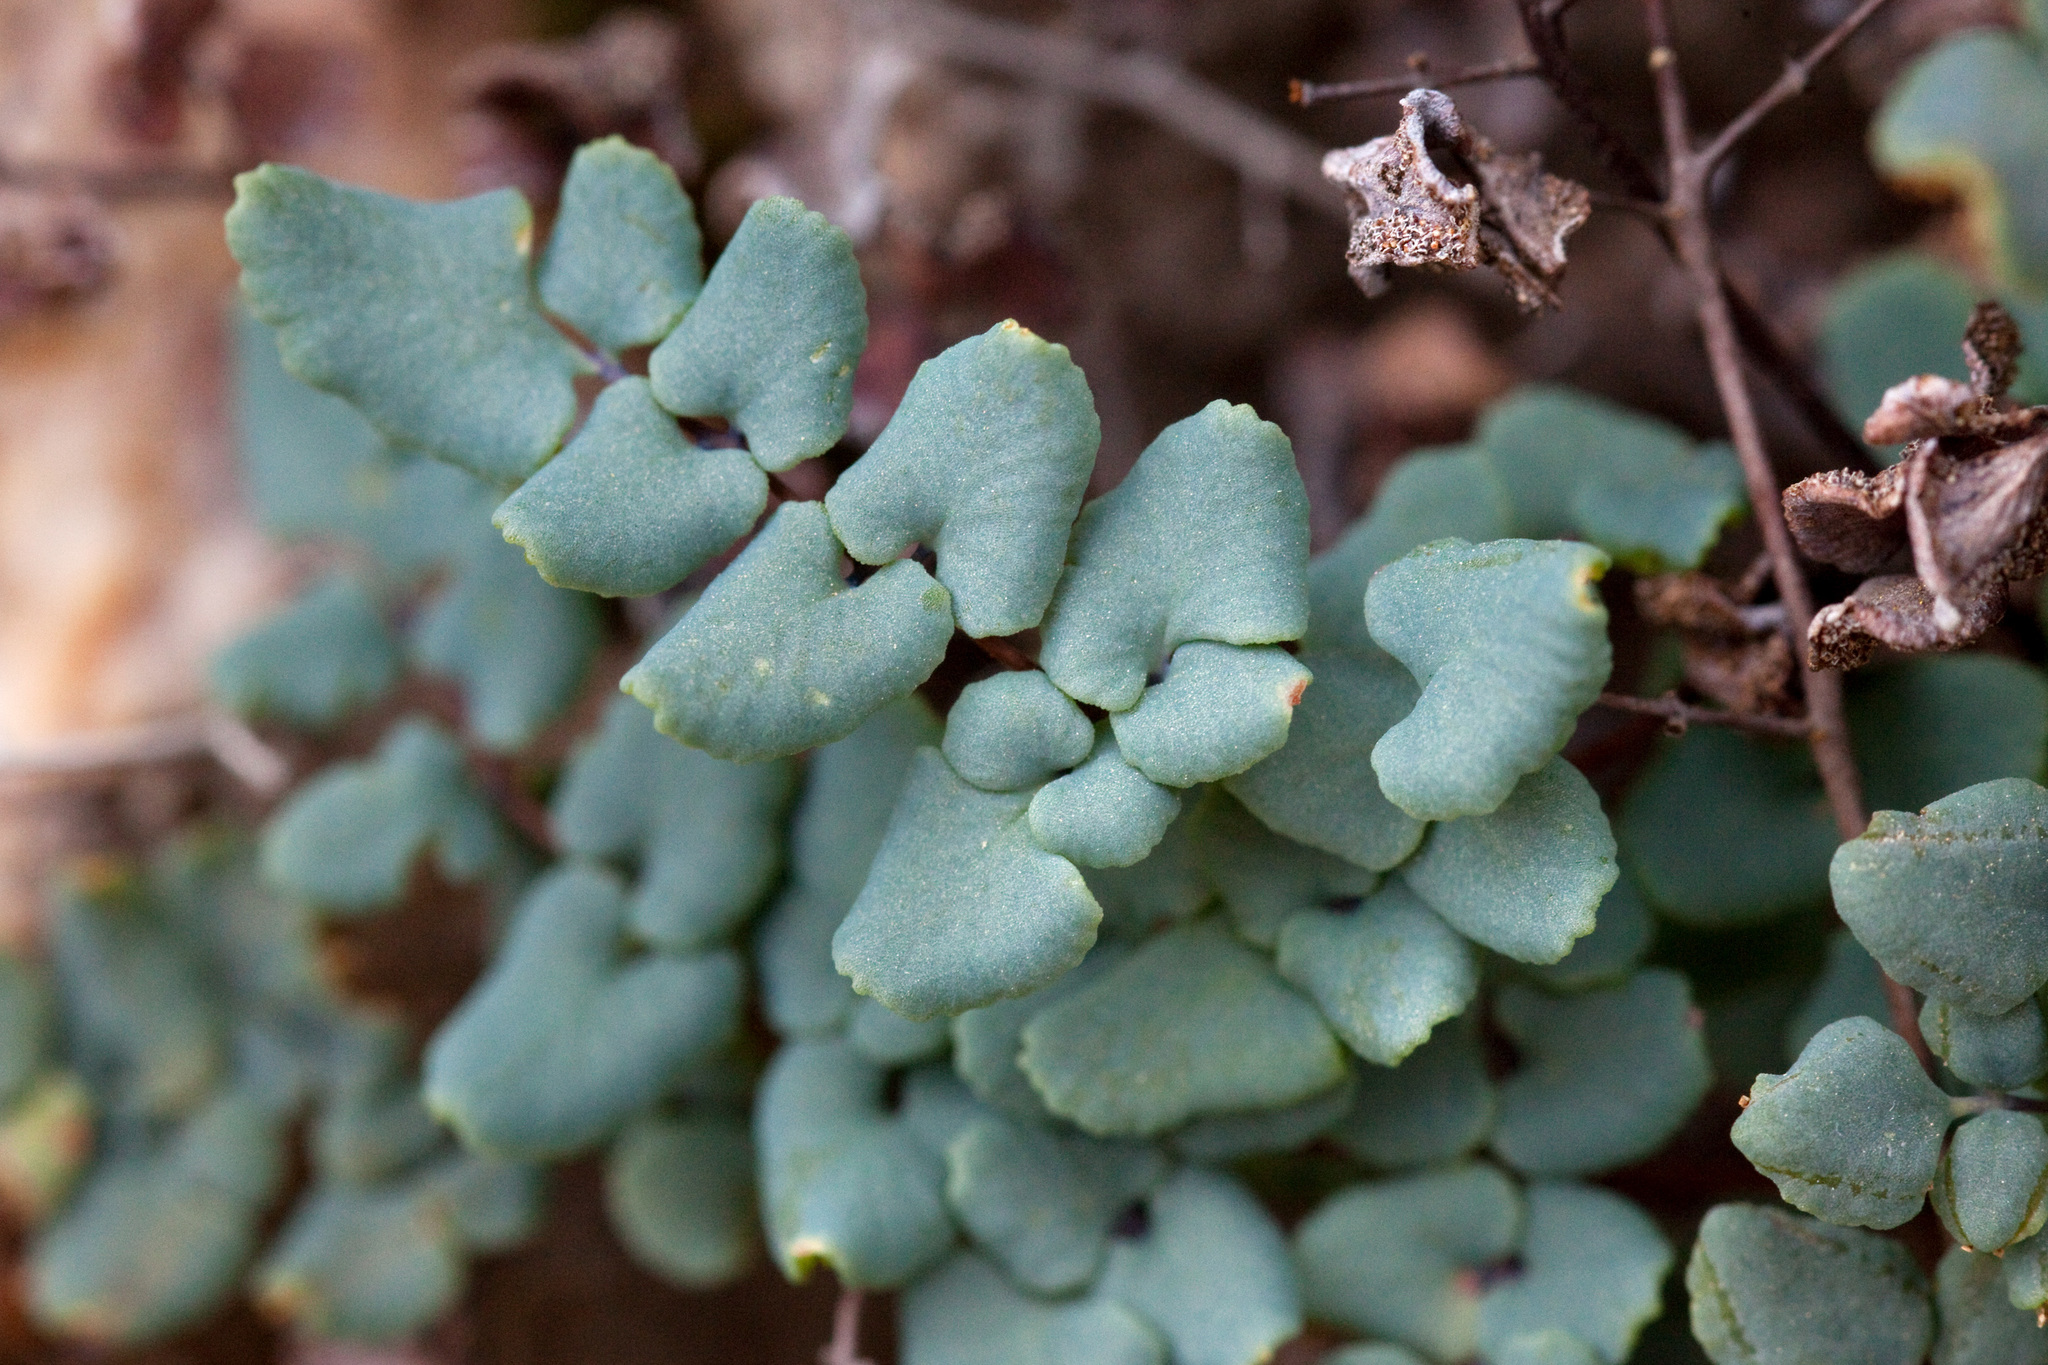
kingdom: Plantae
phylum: Tracheophyta
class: Polypodiopsida
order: Polypodiales
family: Pteridaceae
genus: Argyrochosma
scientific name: Argyrochosma jonesii
